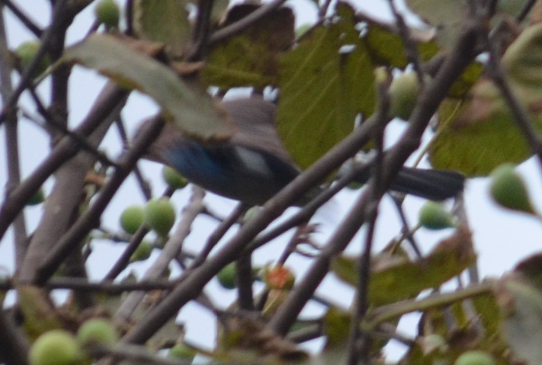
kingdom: Animalia
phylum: Chordata
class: Aves
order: Passeriformes
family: Corvidae
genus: Garrulus
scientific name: Garrulus glandarius
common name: Eurasian jay
